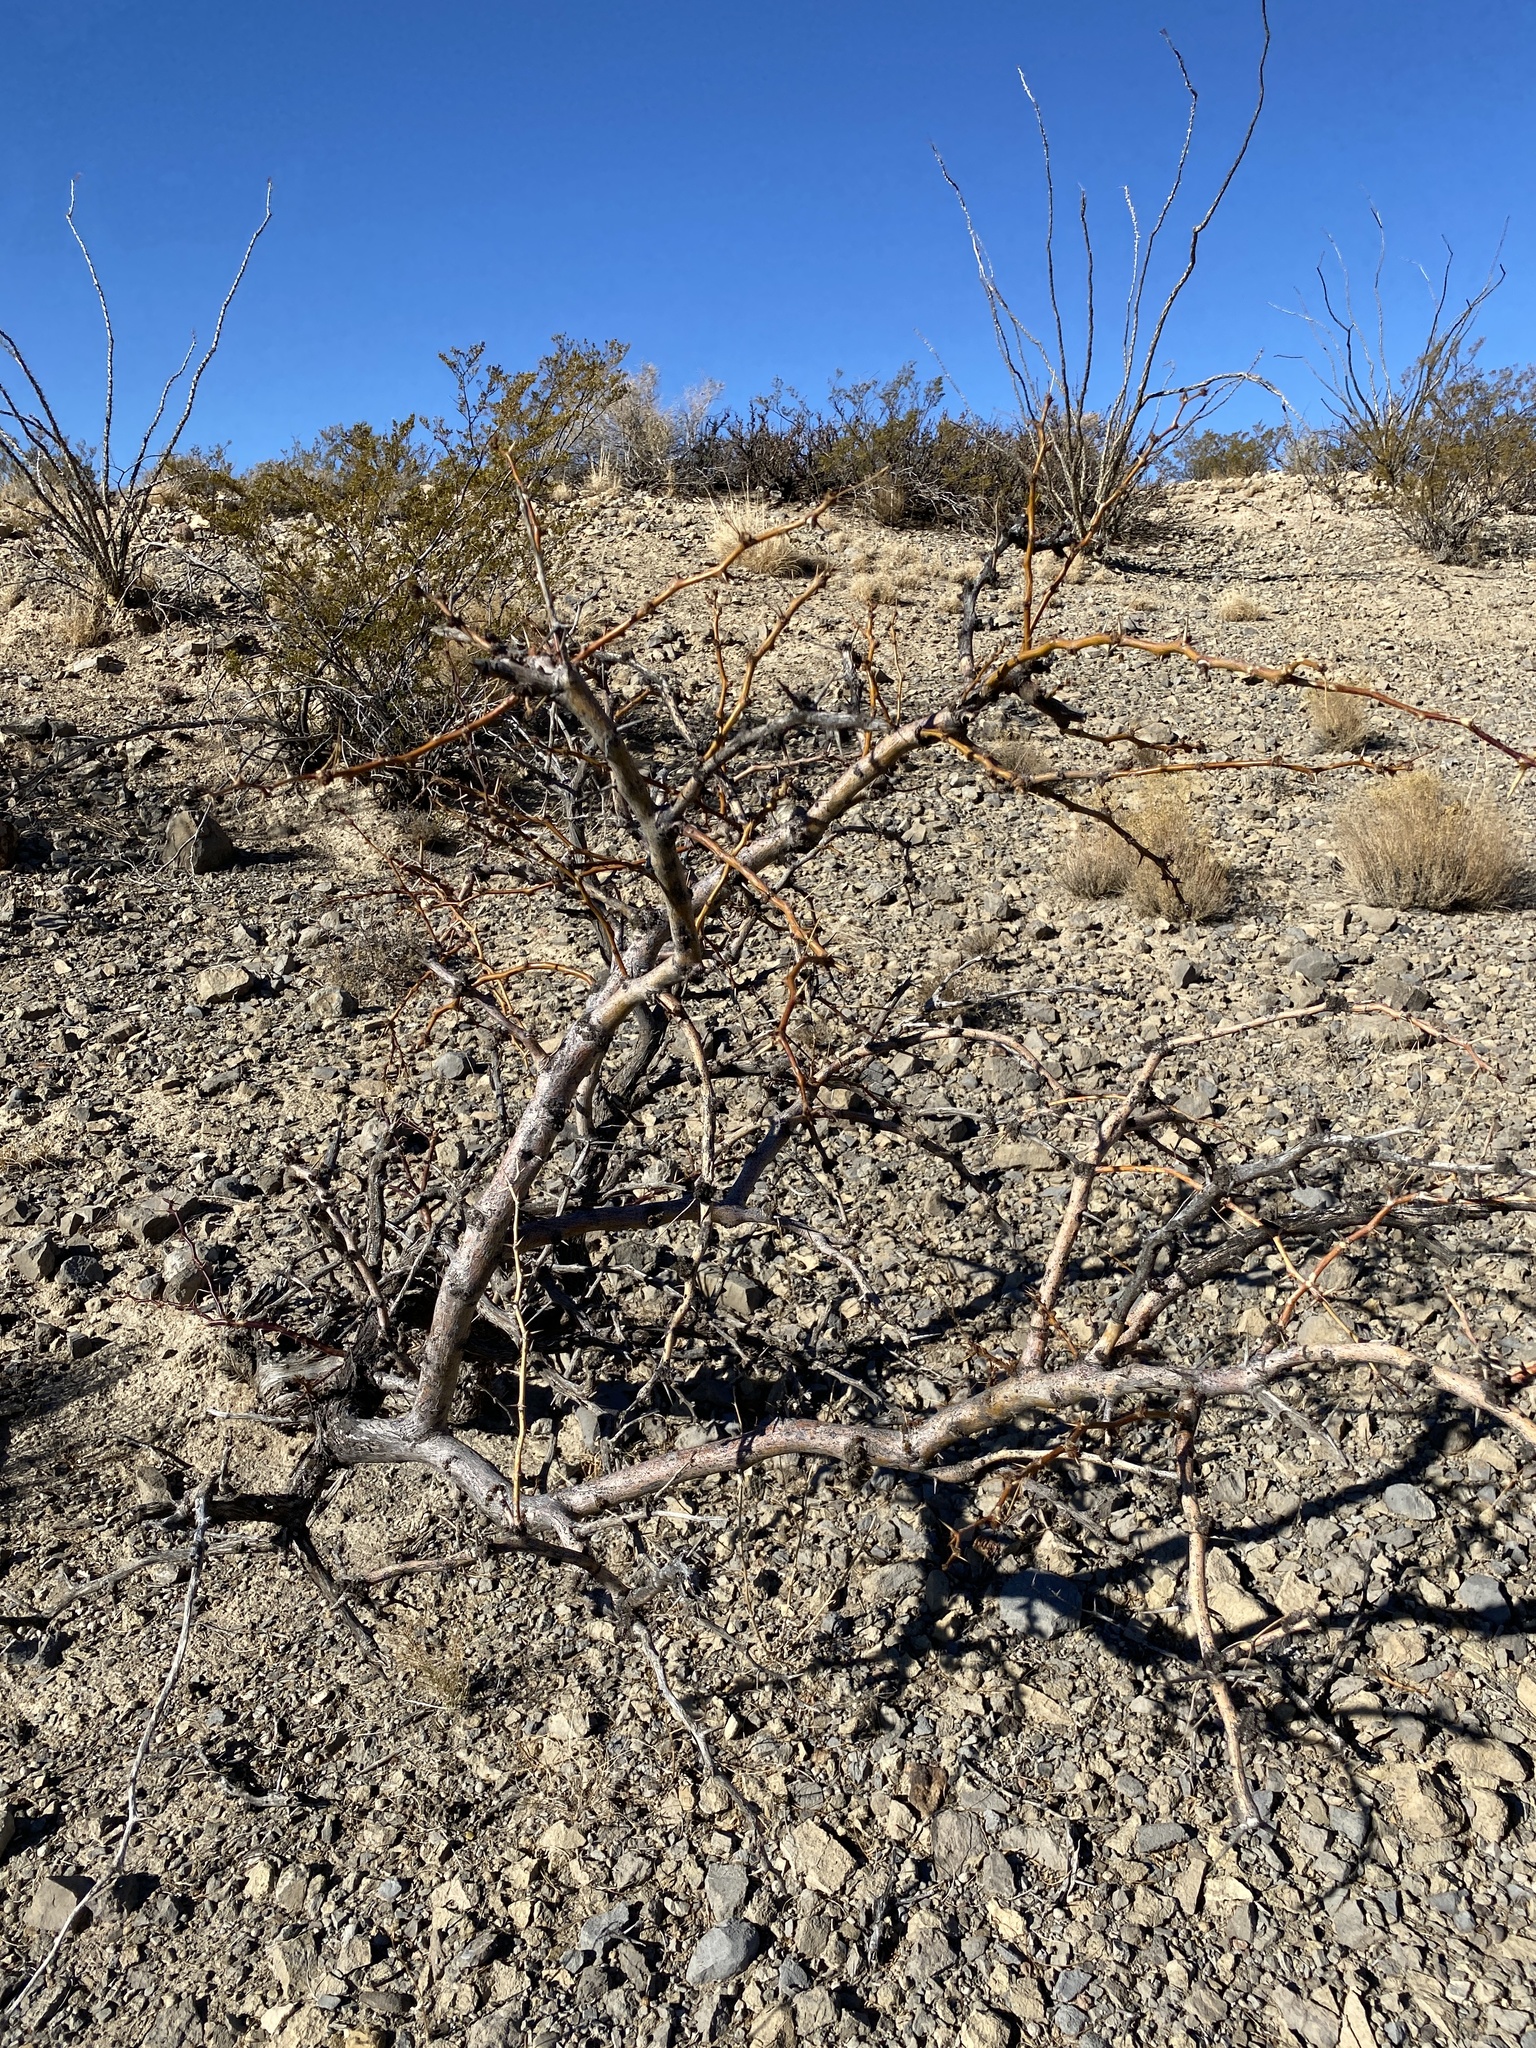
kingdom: Plantae
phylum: Tracheophyta
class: Magnoliopsida
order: Fabales
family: Fabaceae
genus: Prosopis
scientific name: Prosopis glandulosa
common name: Honey mesquite
